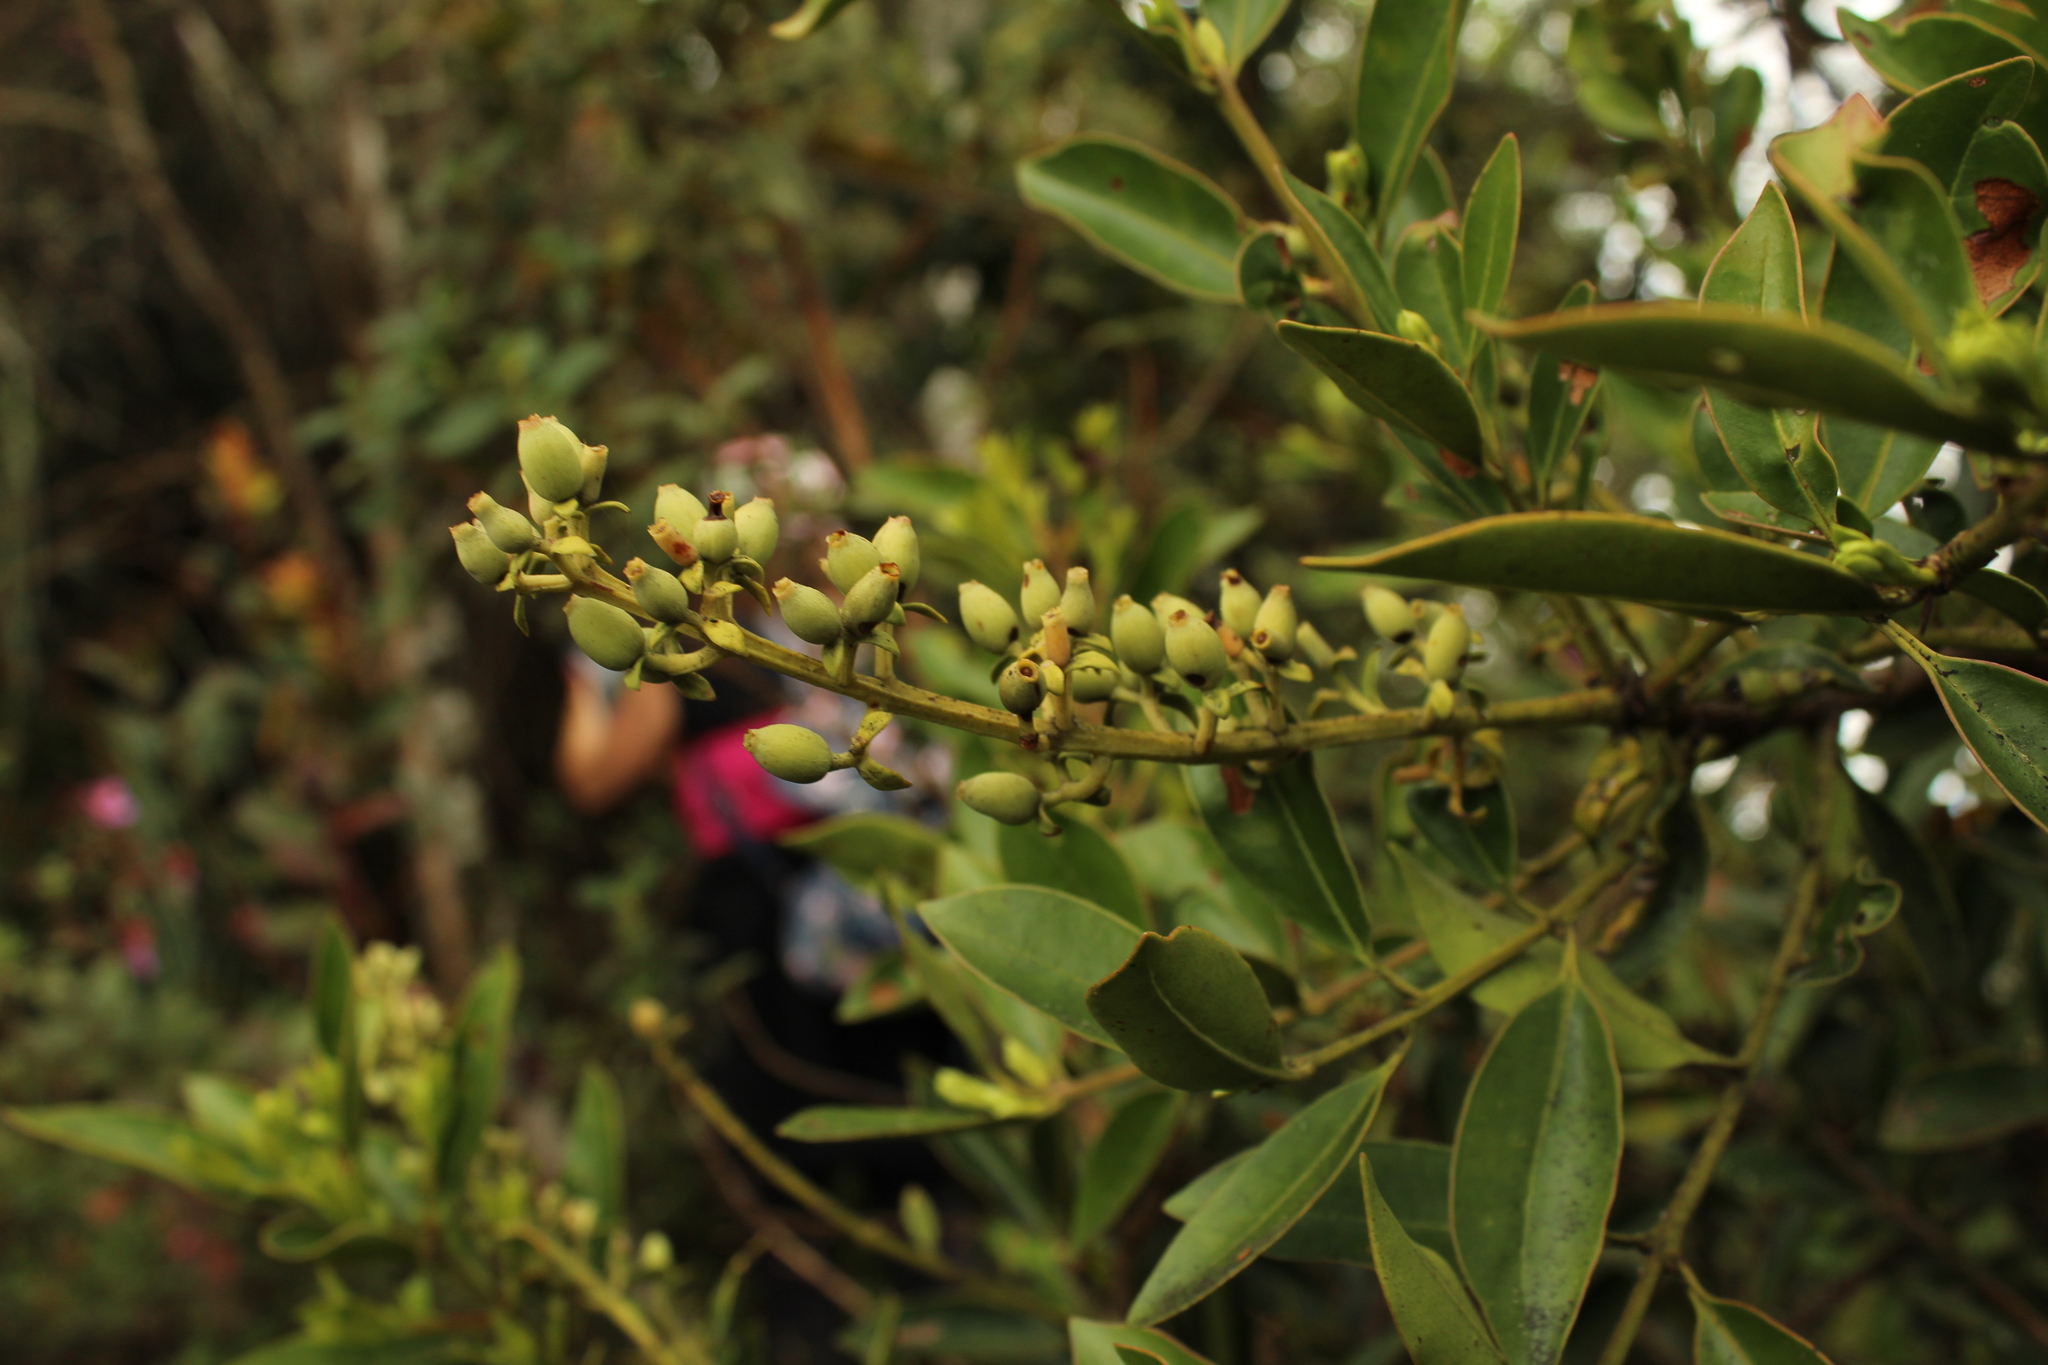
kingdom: Plantae
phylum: Tracheophyta
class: Magnoliopsida
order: Santalales
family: Loranthaceae
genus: Gaiadendron
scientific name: Gaiadendron punctatum
